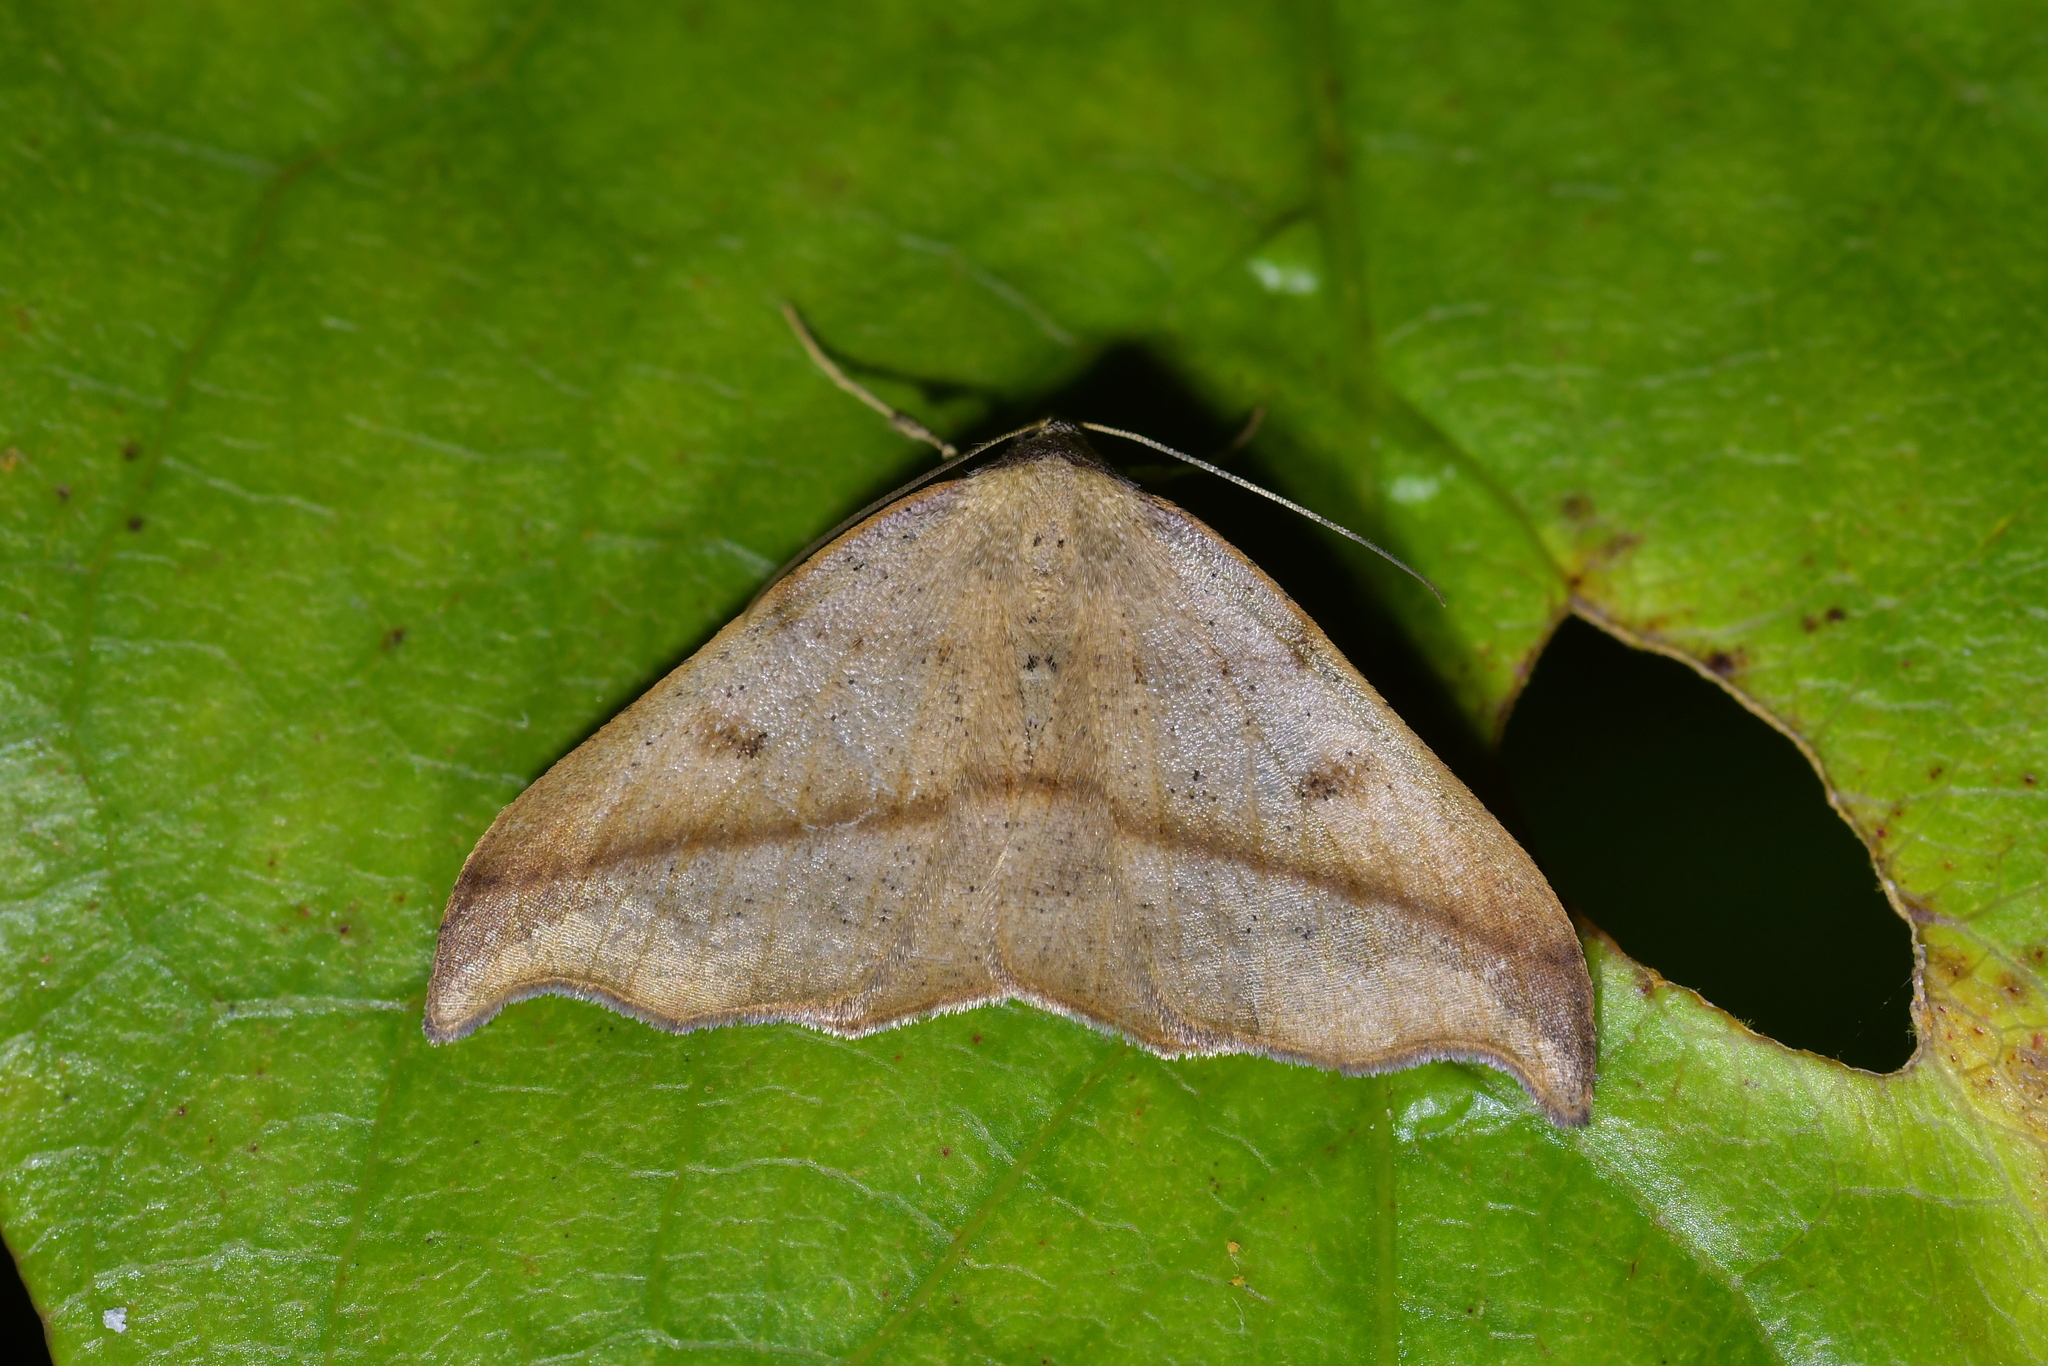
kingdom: Animalia
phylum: Arthropoda
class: Insecta
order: Lepidoptera
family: Geometridae
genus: Sarisa
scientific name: Sarisa muriferata
